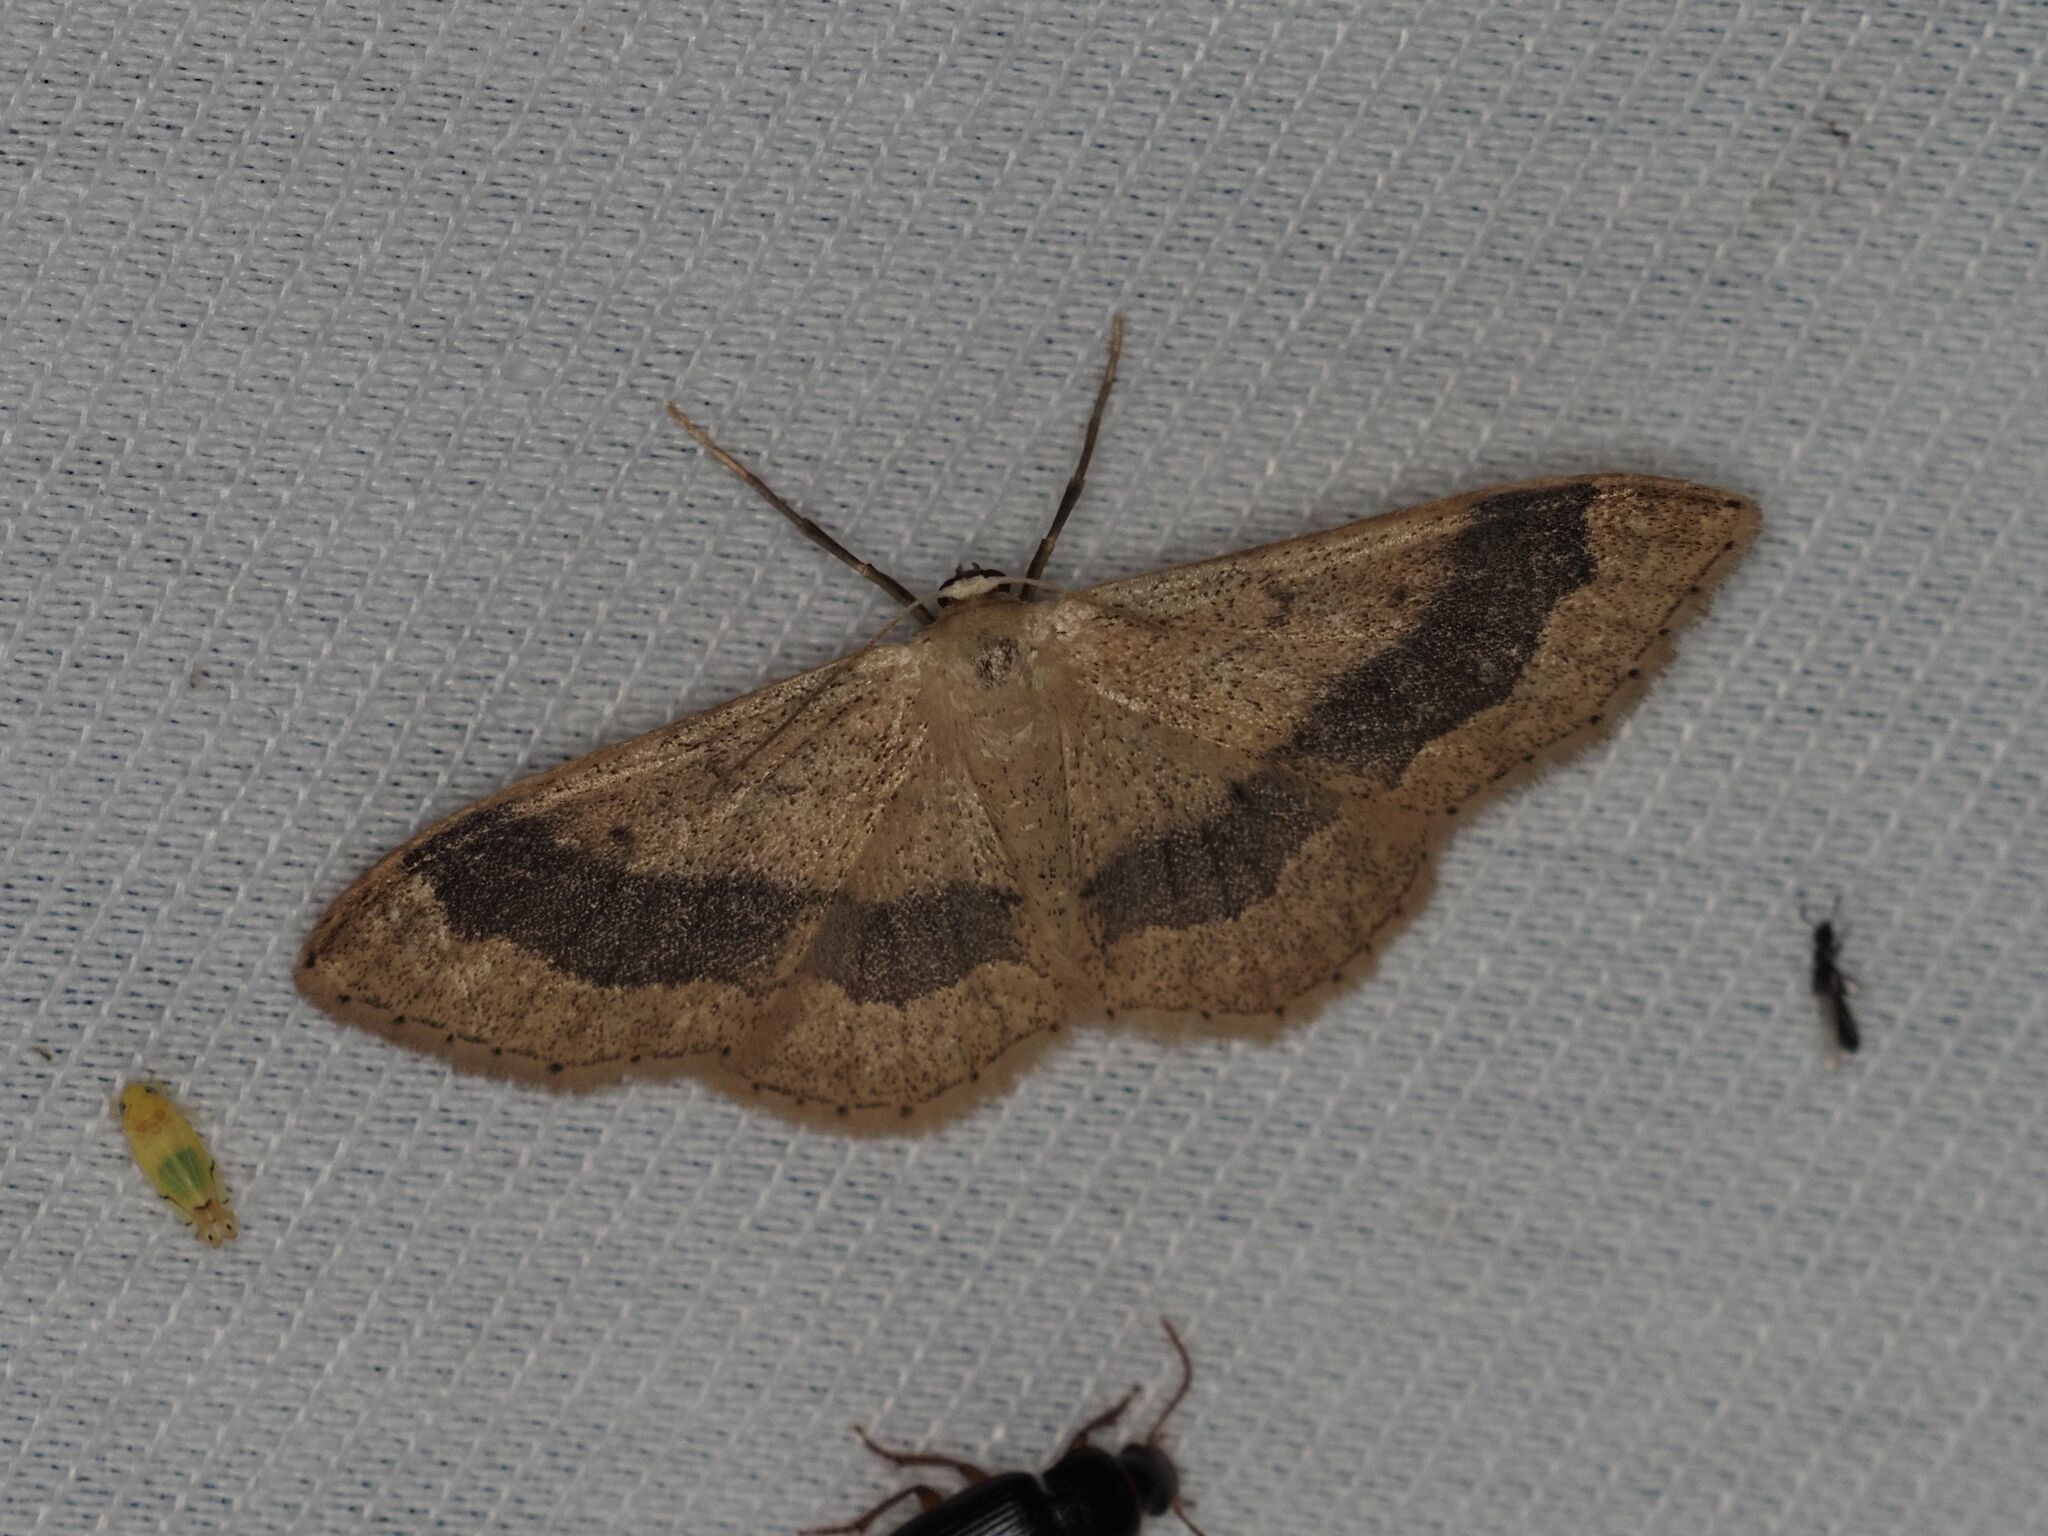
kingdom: Animalia
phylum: Arthropoda
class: Insecta
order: Lepidoptera
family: Geometridae
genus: Idaea
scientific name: Idaea aversata
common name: Riband wave
